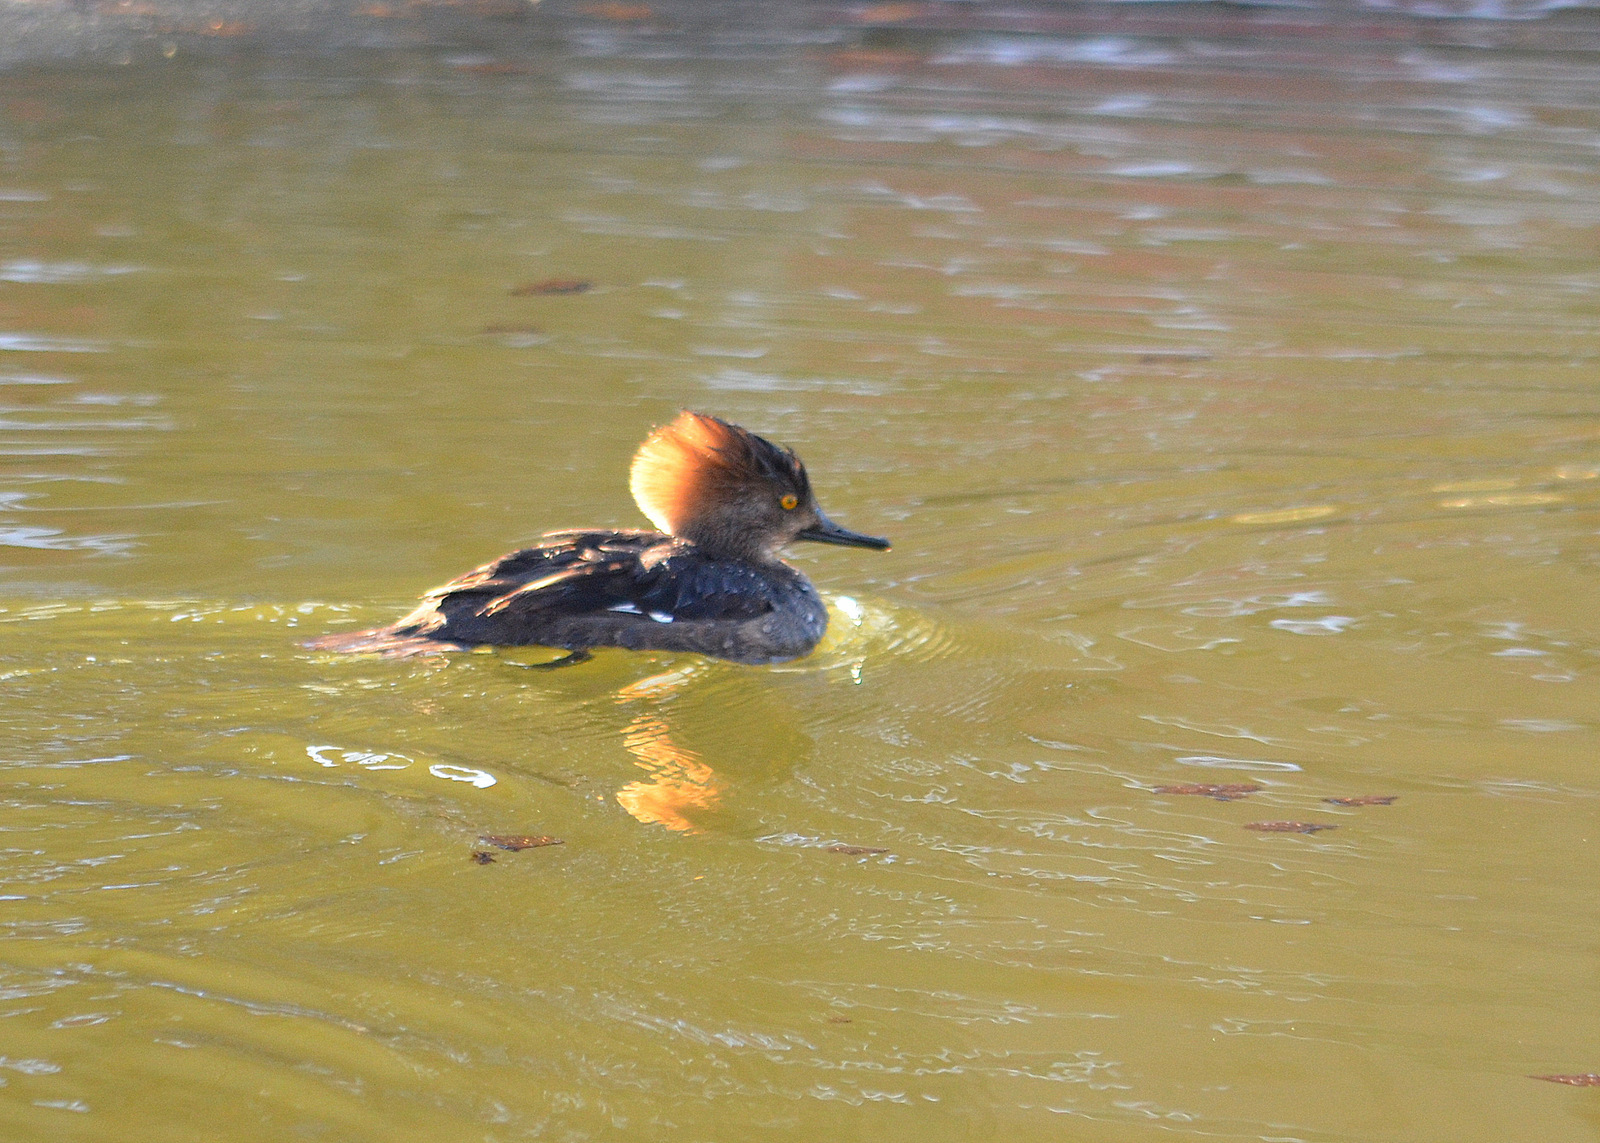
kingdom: Animalia
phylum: Chordata
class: Aves
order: Anseriformes
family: Anatidae
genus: Lophodytes
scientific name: Lophodytes cucullatus
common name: Hooded merganser
